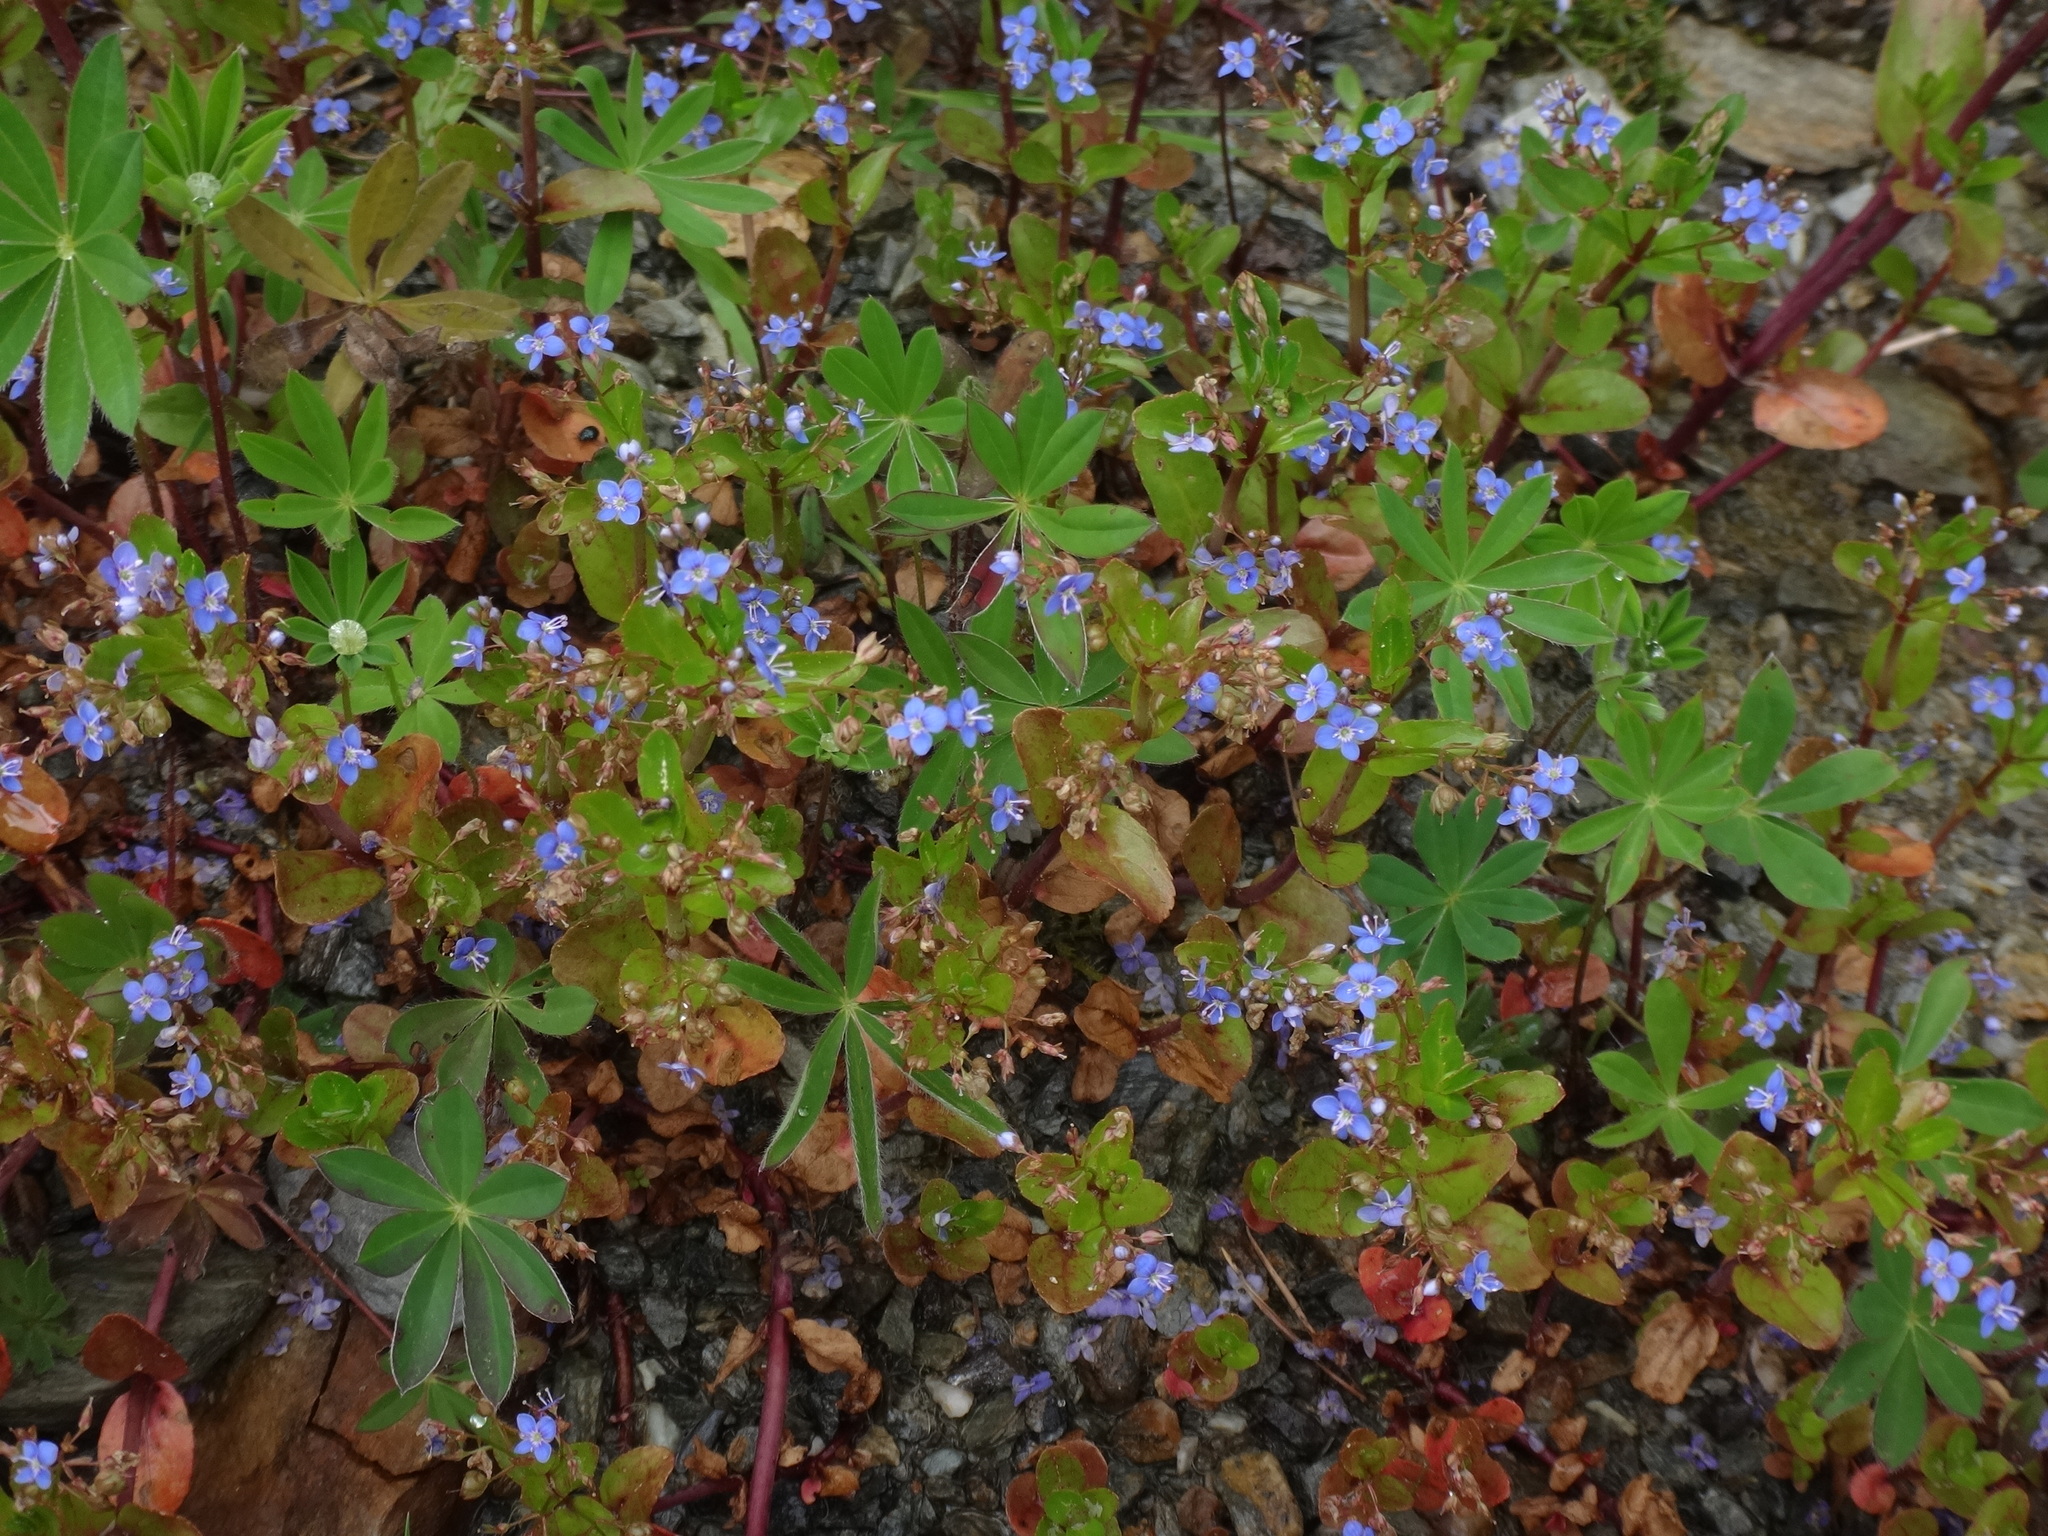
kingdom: Plantae
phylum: Tracheophyta
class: Magnoliopsida
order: Lamiales
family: Plantaginaceae
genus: Veronica
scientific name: Veronica beccabunga
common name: Brooklime
